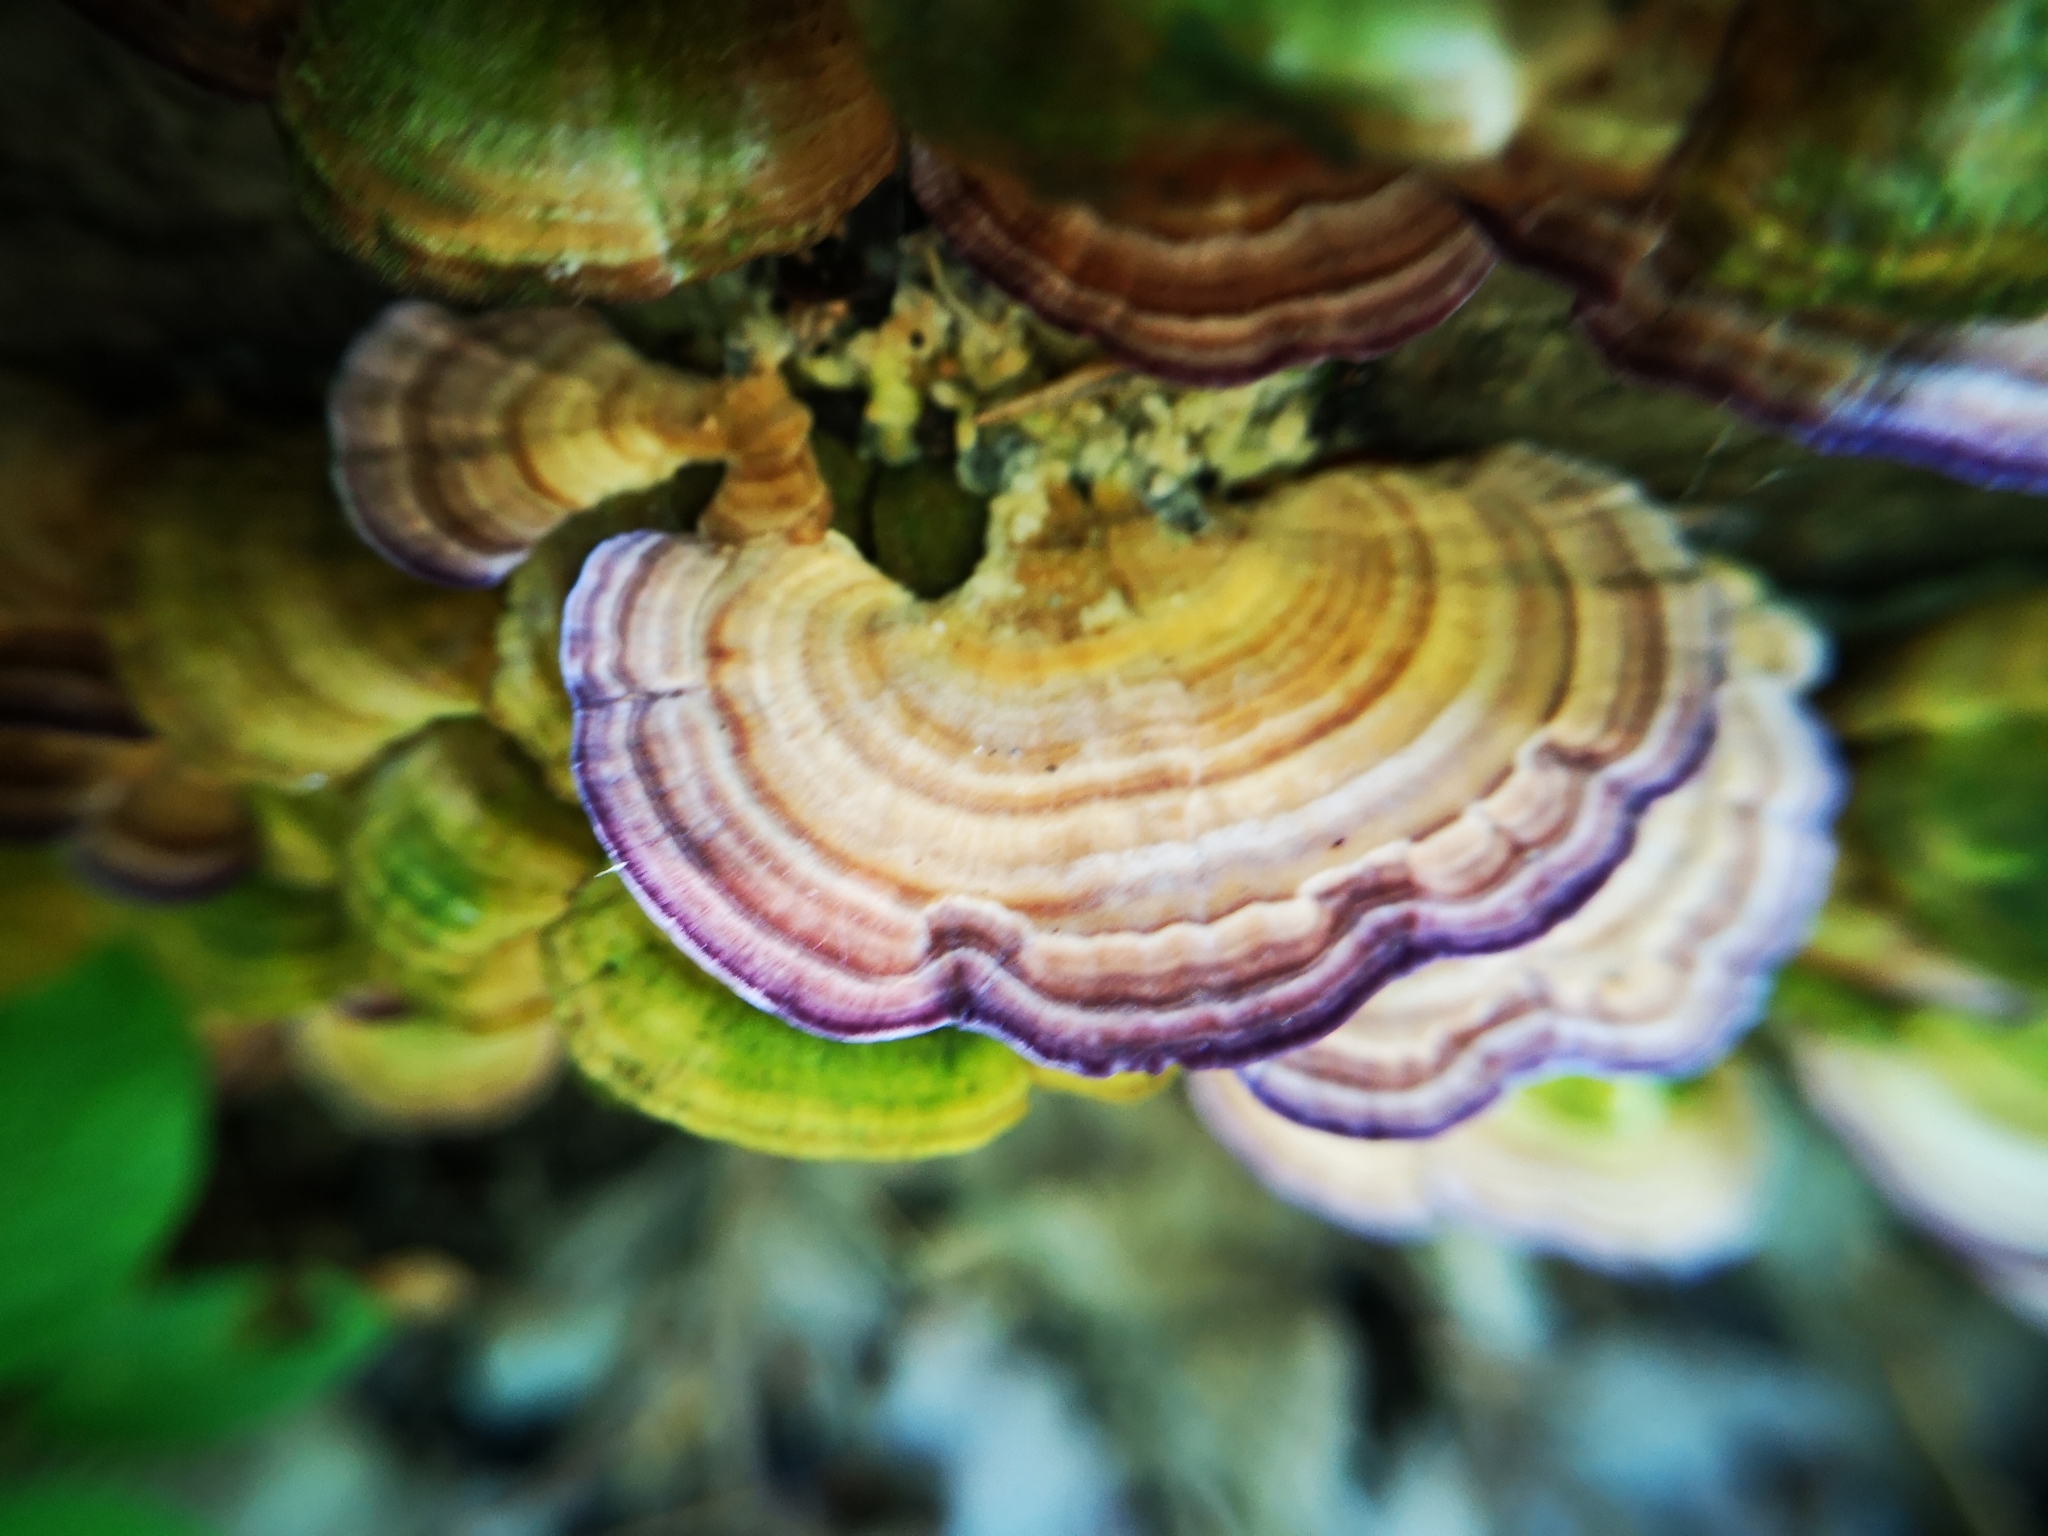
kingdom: Fungi
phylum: Basidiomycota
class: Agaricomycetes
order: Hymenochaetales
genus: Trichaptum
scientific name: Trichaptum biforme
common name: Violet-toothed polypore
